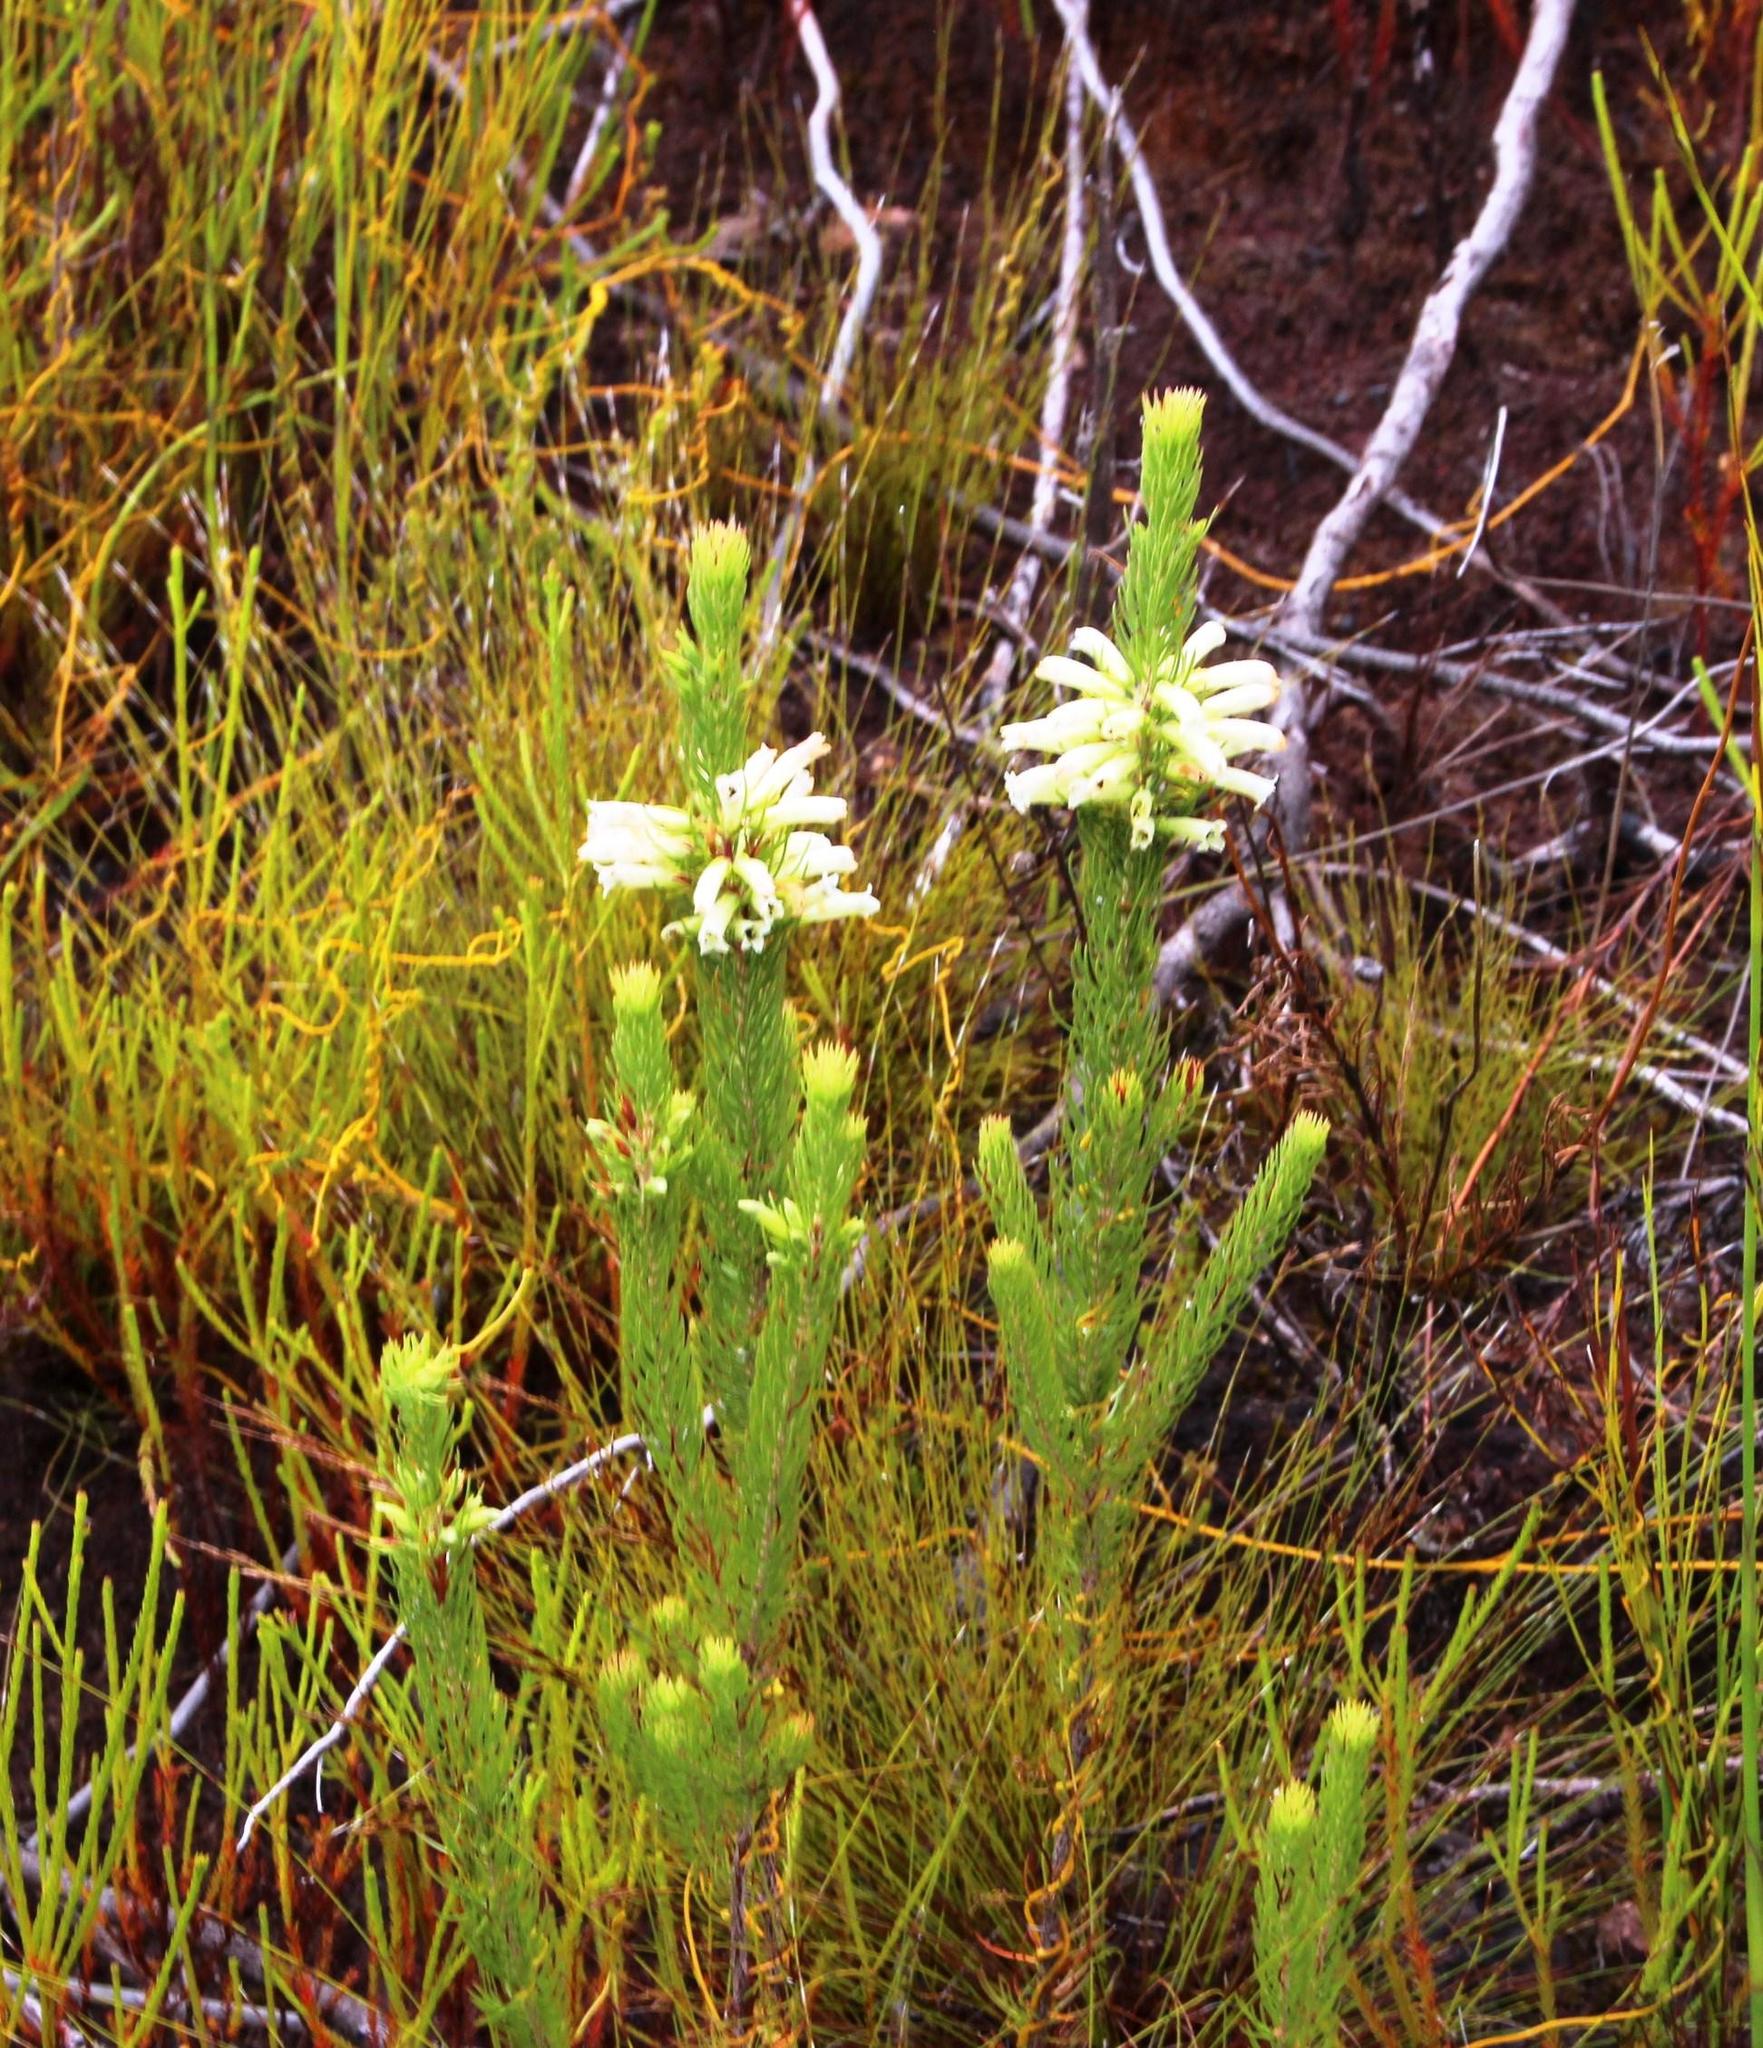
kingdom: Plantae
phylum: Tracheophyta
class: Magnoliopsida
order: Ericales
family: Ericaceae
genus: Erica
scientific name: Erica viscaria
